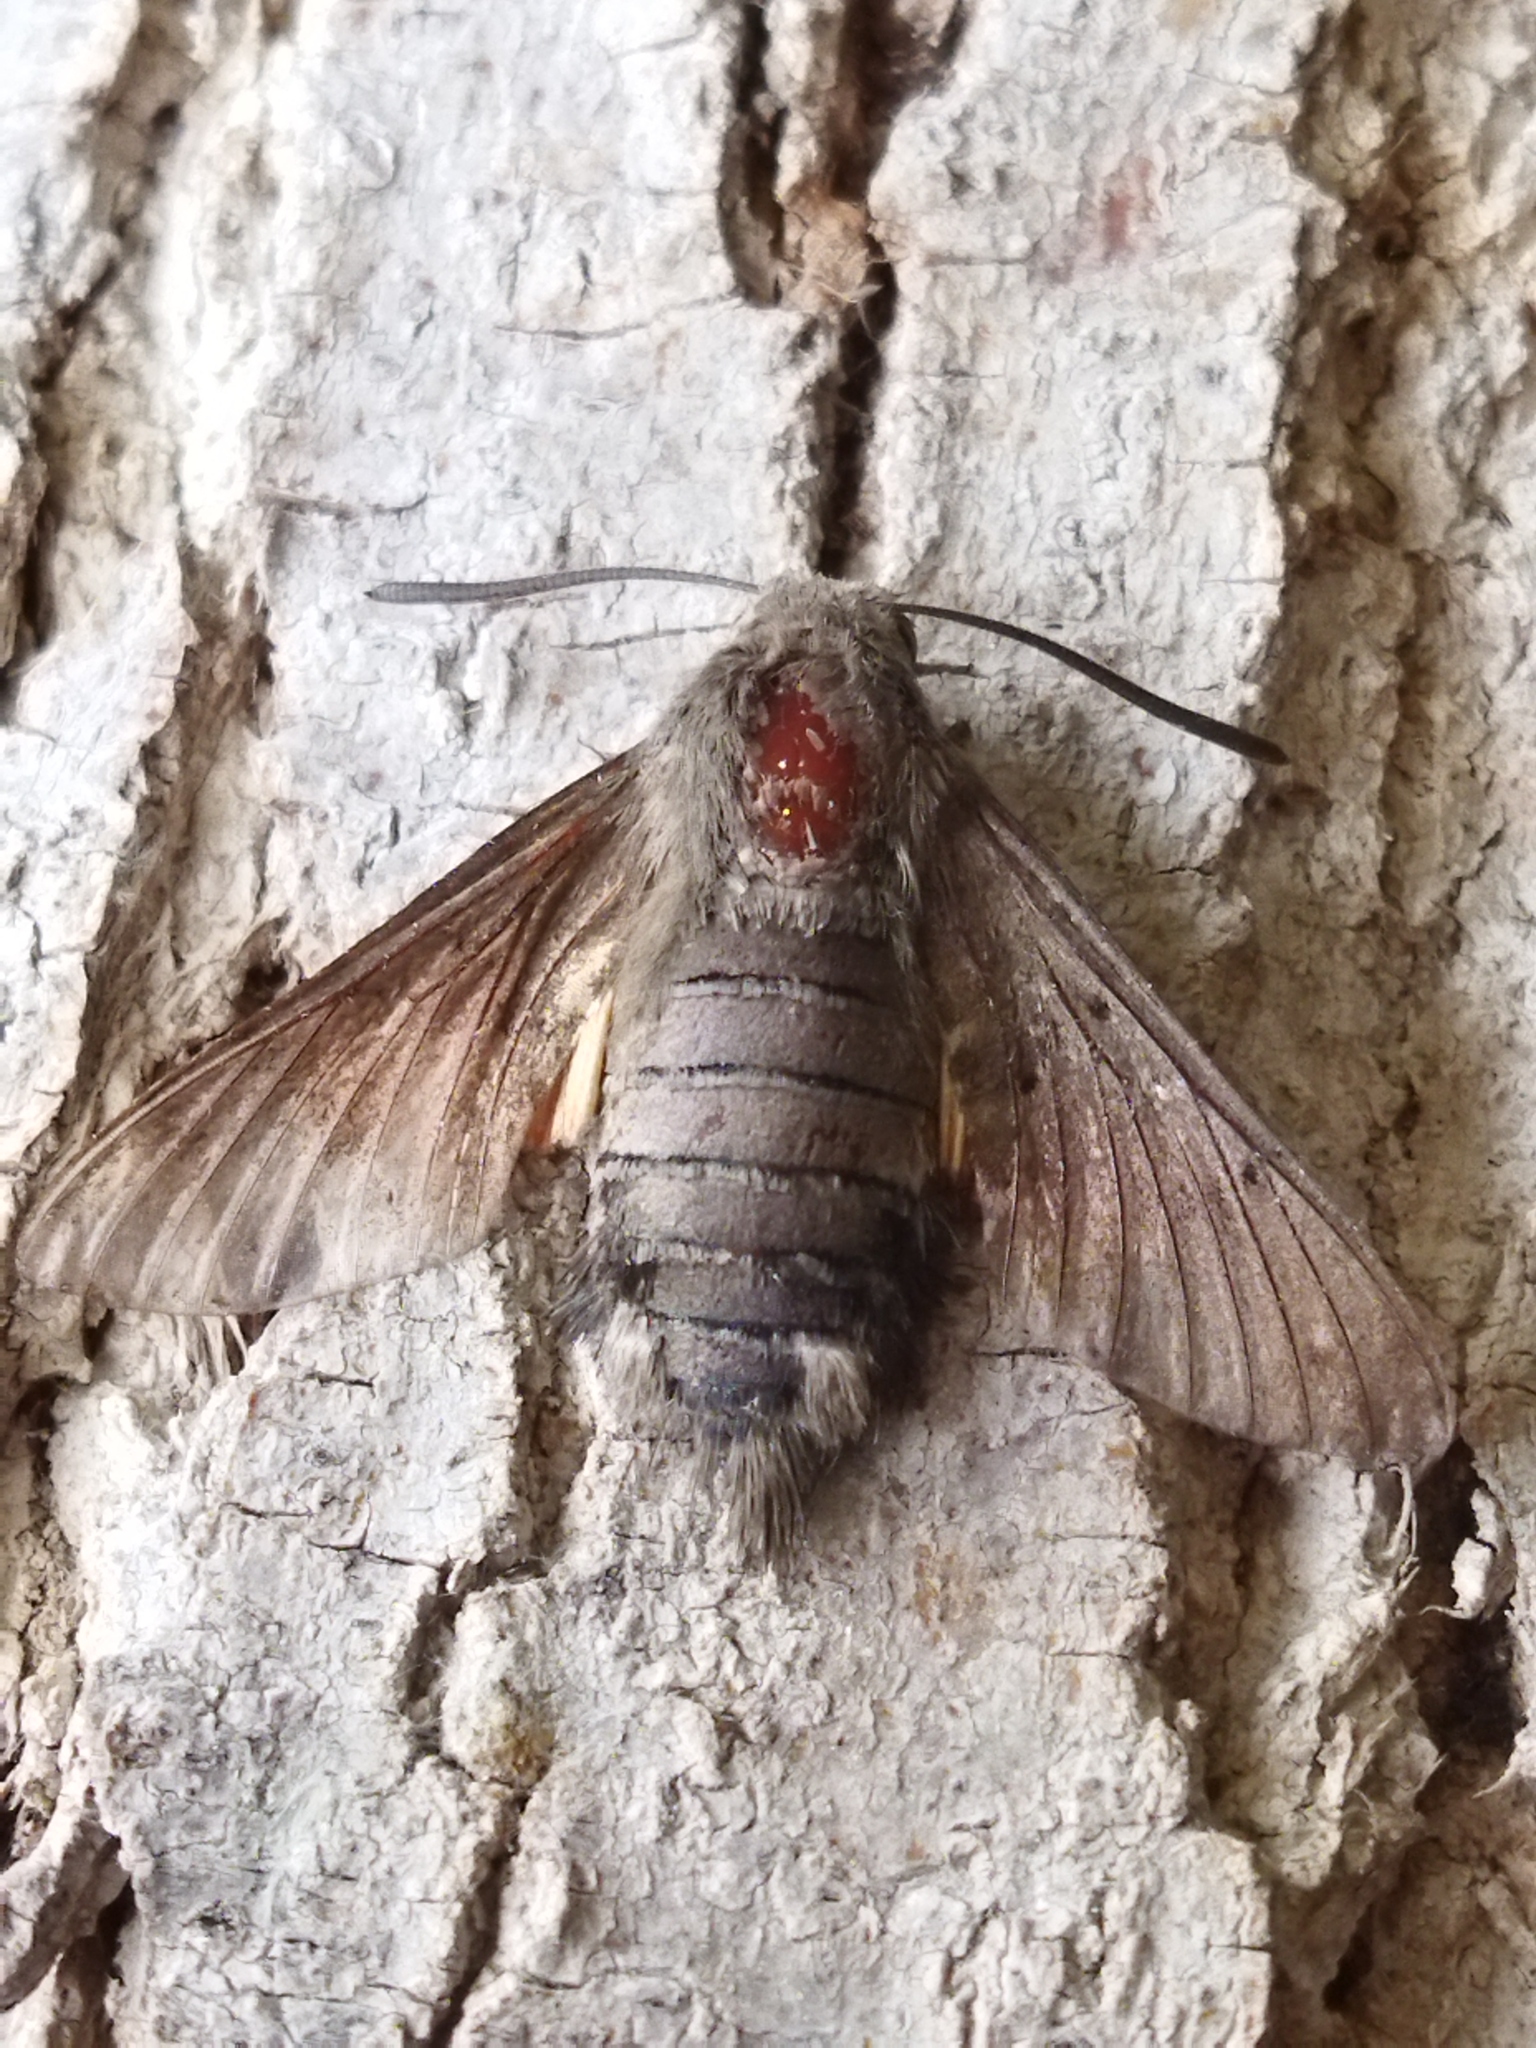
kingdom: Animalia
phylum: Arthropoda
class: Insecta
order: Lepidoptera
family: Sphingidae
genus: Macroglossum
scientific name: Macroglossum stellatarum
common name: Humming-bird hawk-moth
